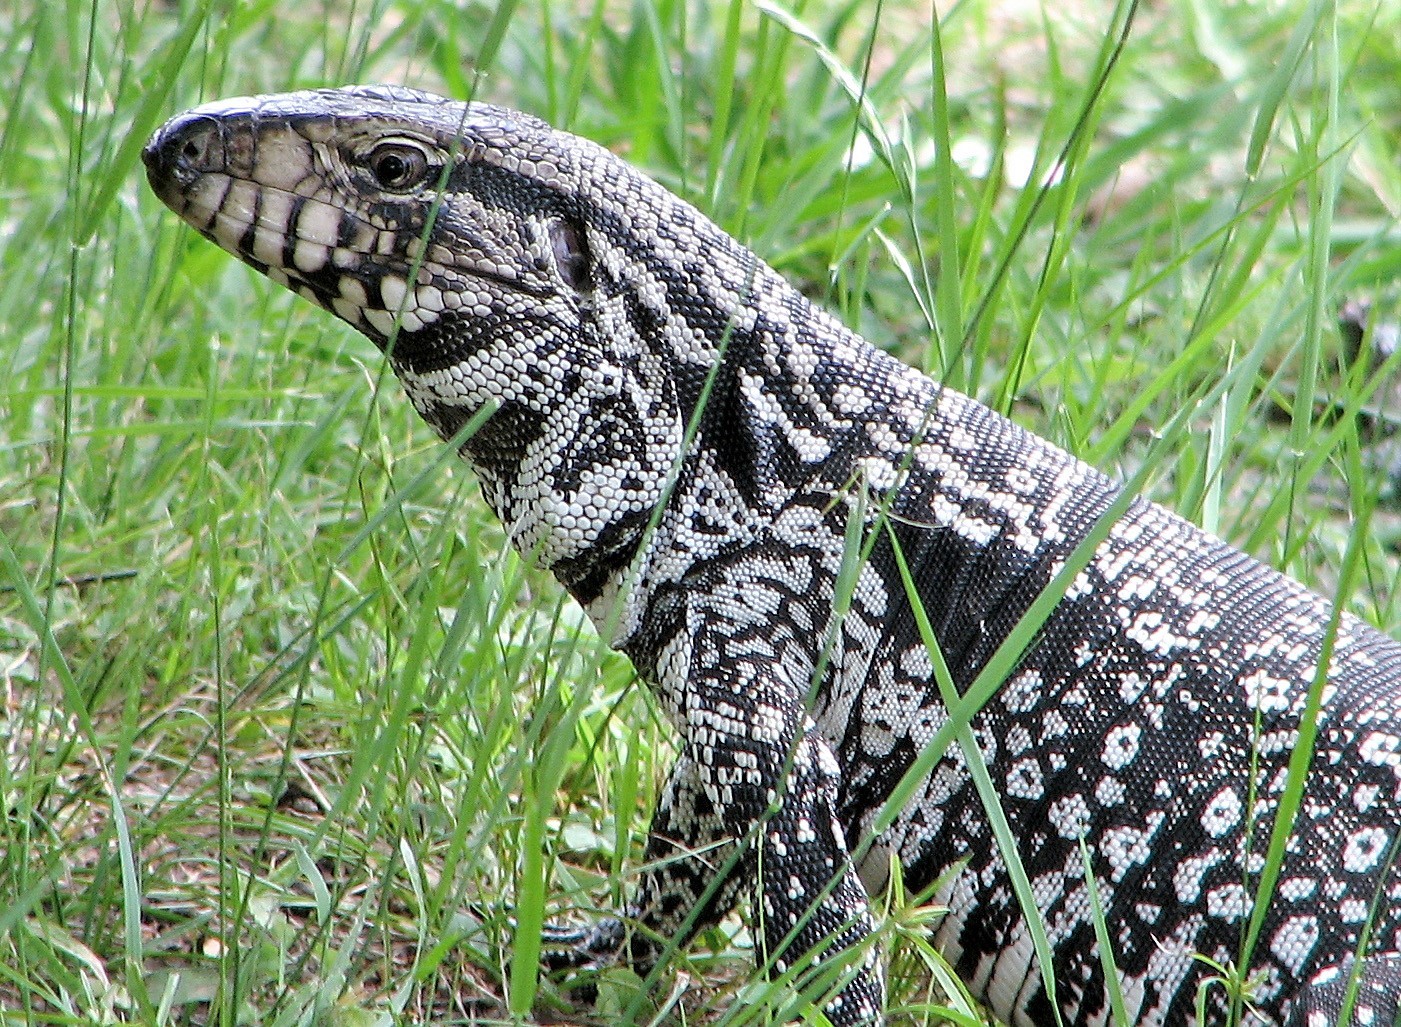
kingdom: Animalia
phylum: Chordata
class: Squamata
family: Teiidae
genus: Salvator
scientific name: Salvator merianae
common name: Argentine black and white tegu
